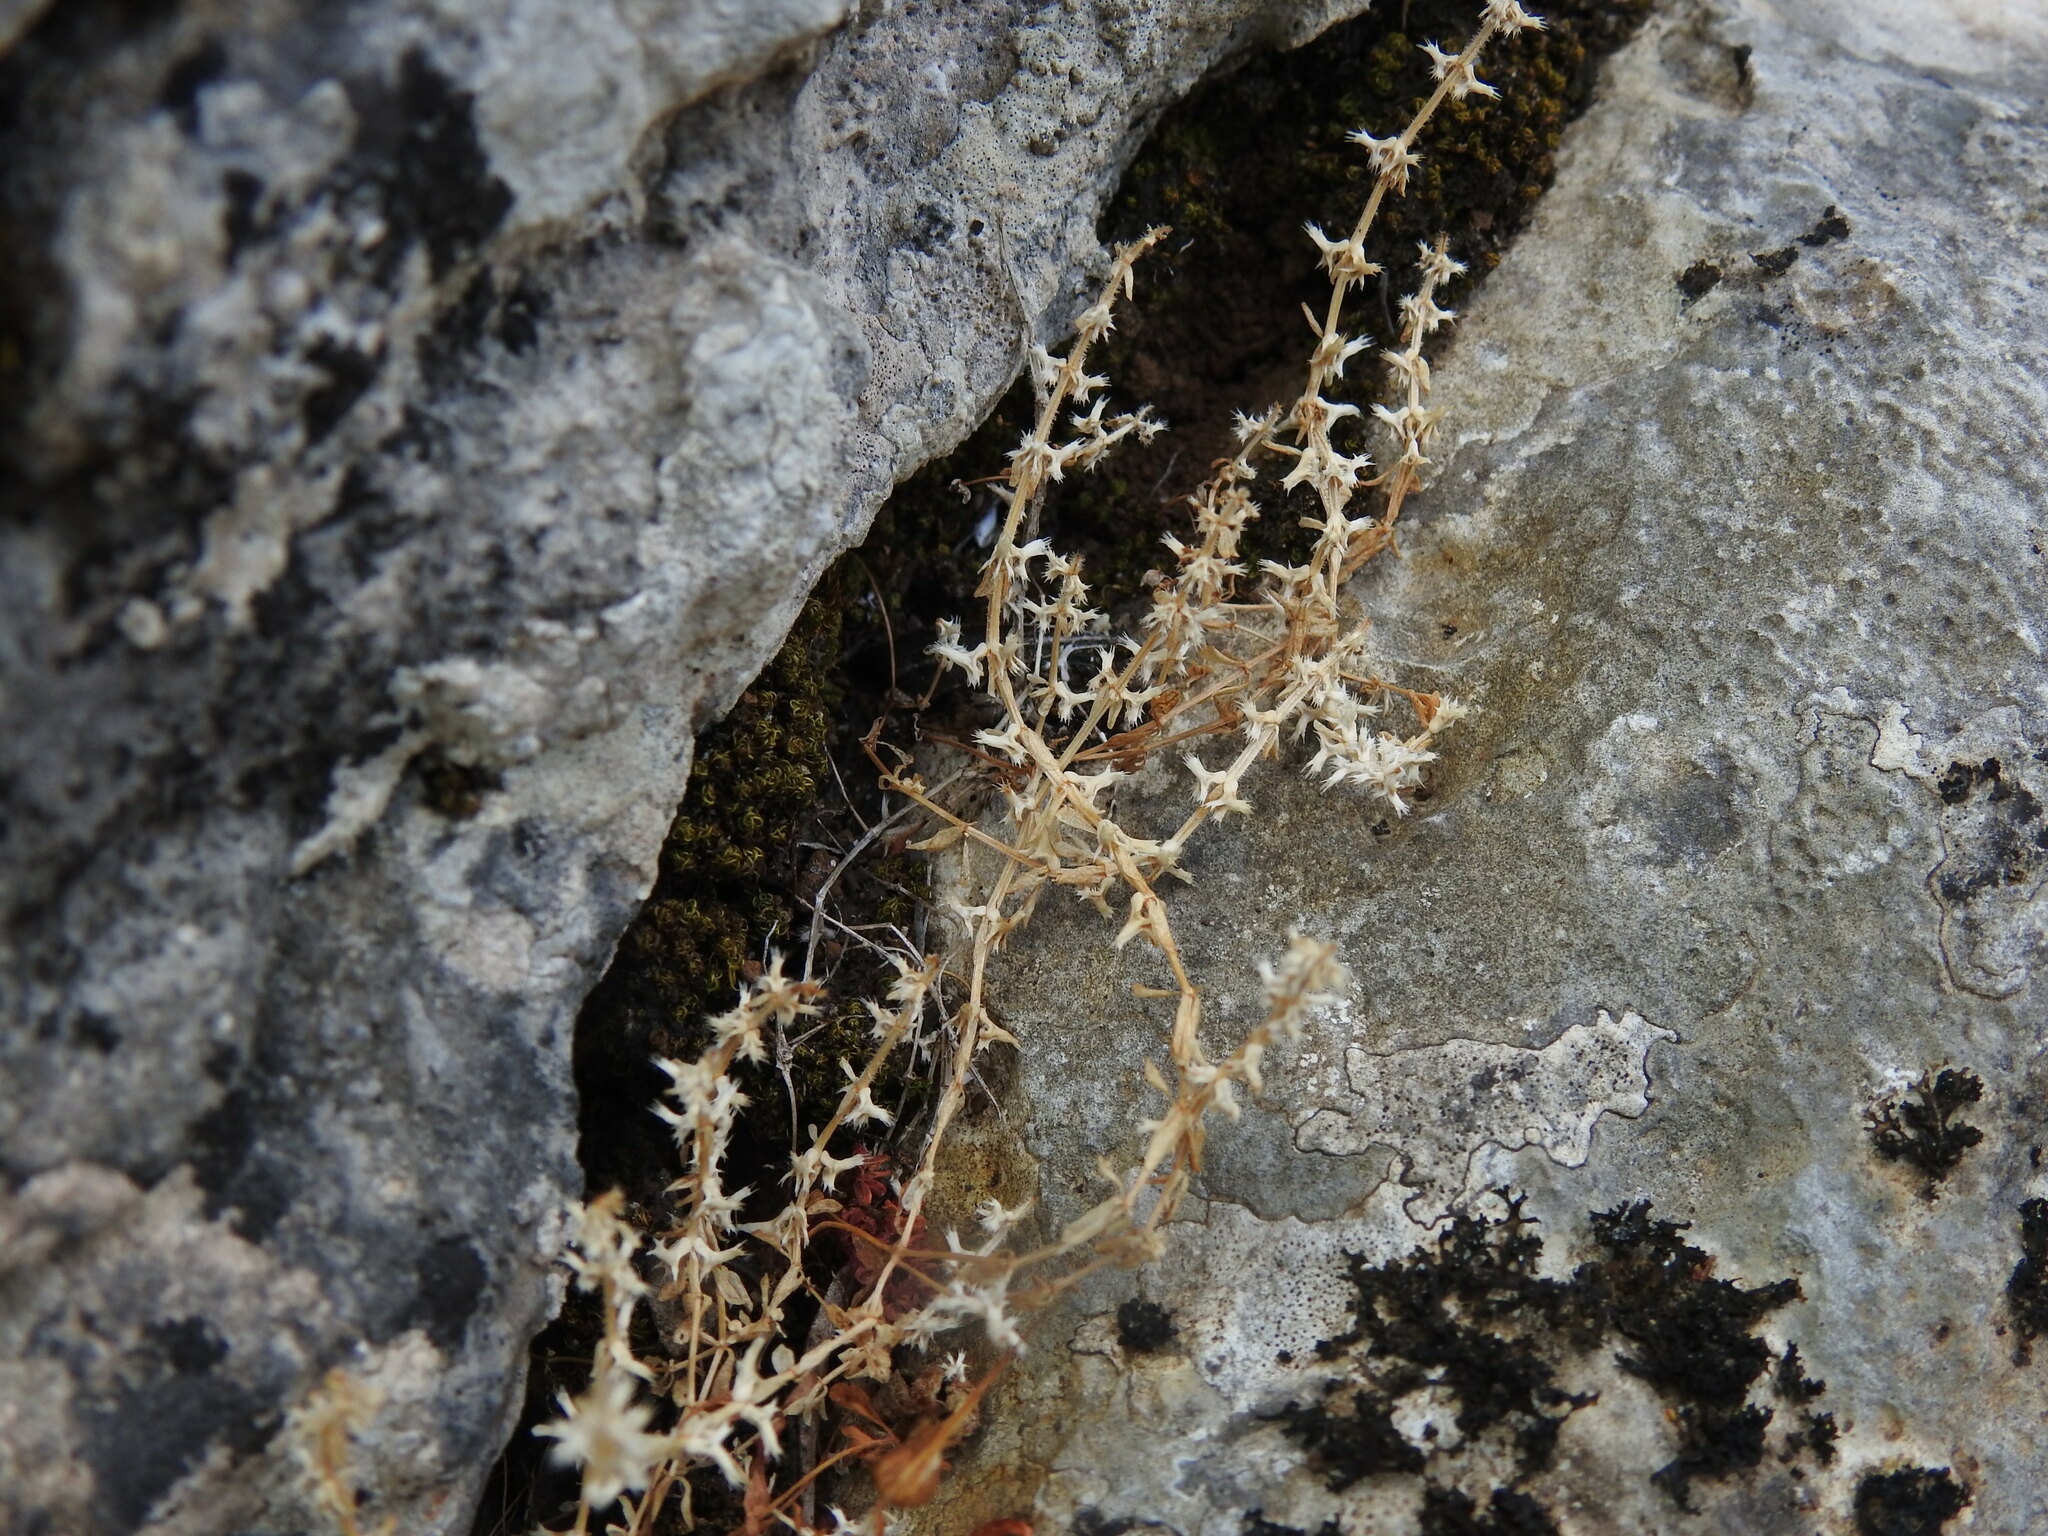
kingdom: Plantae
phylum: Tracheophyta
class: Magnoliopsida
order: Gentianales
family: Rubiaceae
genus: Valantia
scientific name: Valantia muralis
